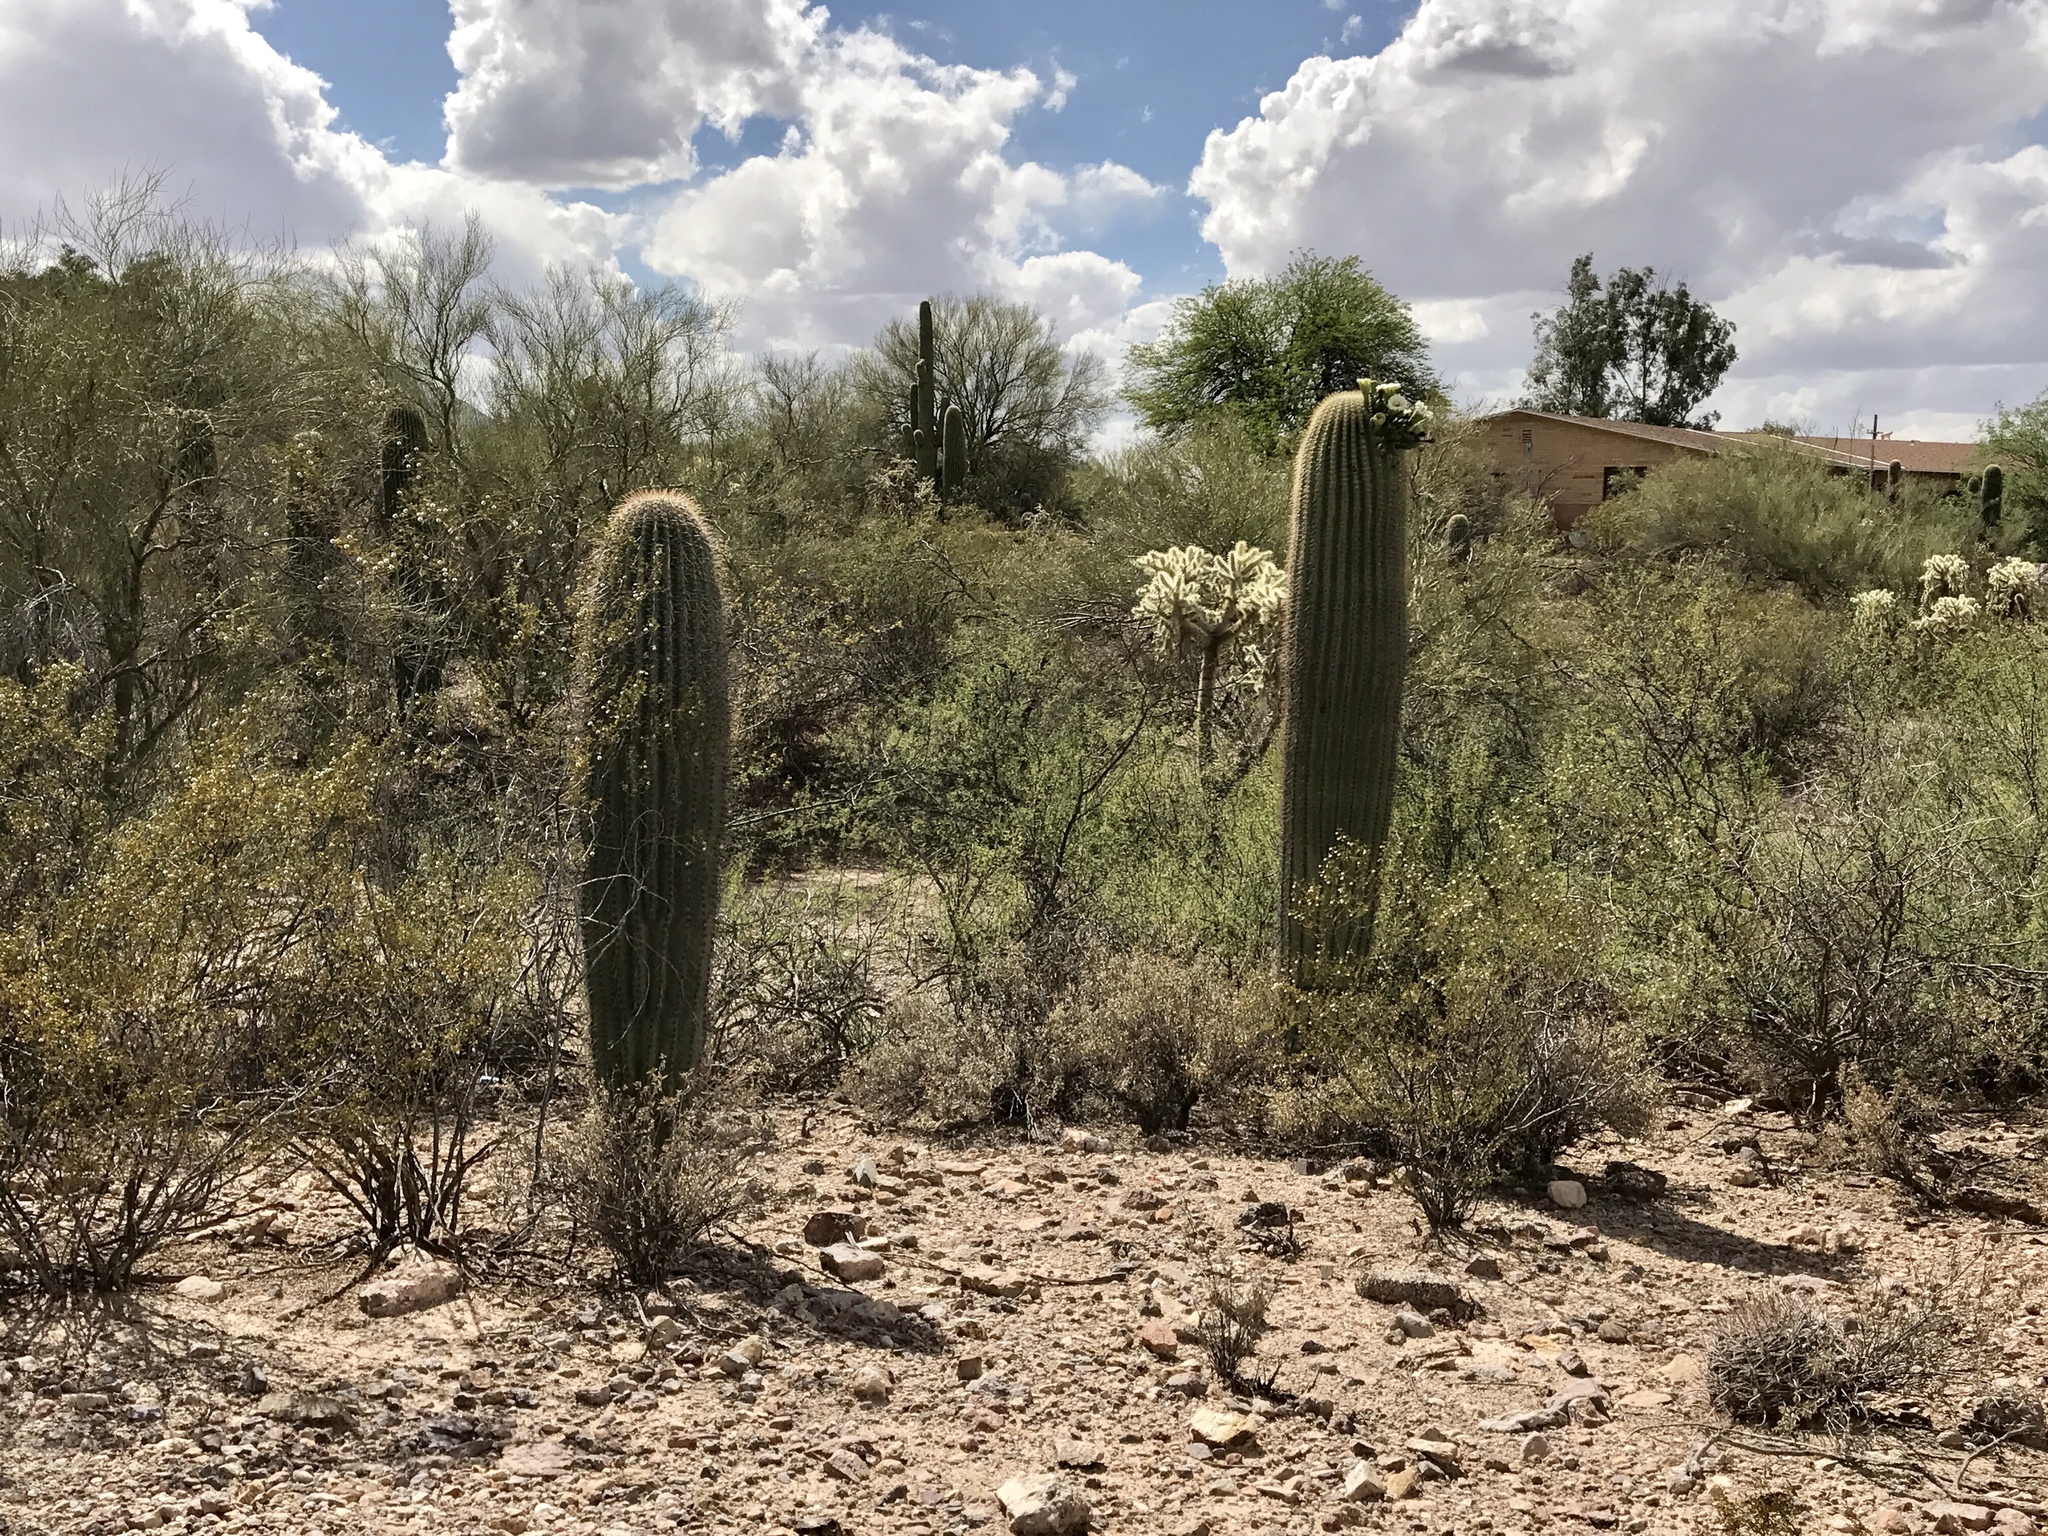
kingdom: Plantae
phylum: Tracheophyta
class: Magnoliopsida
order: Caryophyllales
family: Cactaceae
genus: Carnegiea
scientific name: Carnegiea gigantea
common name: Saguaro
